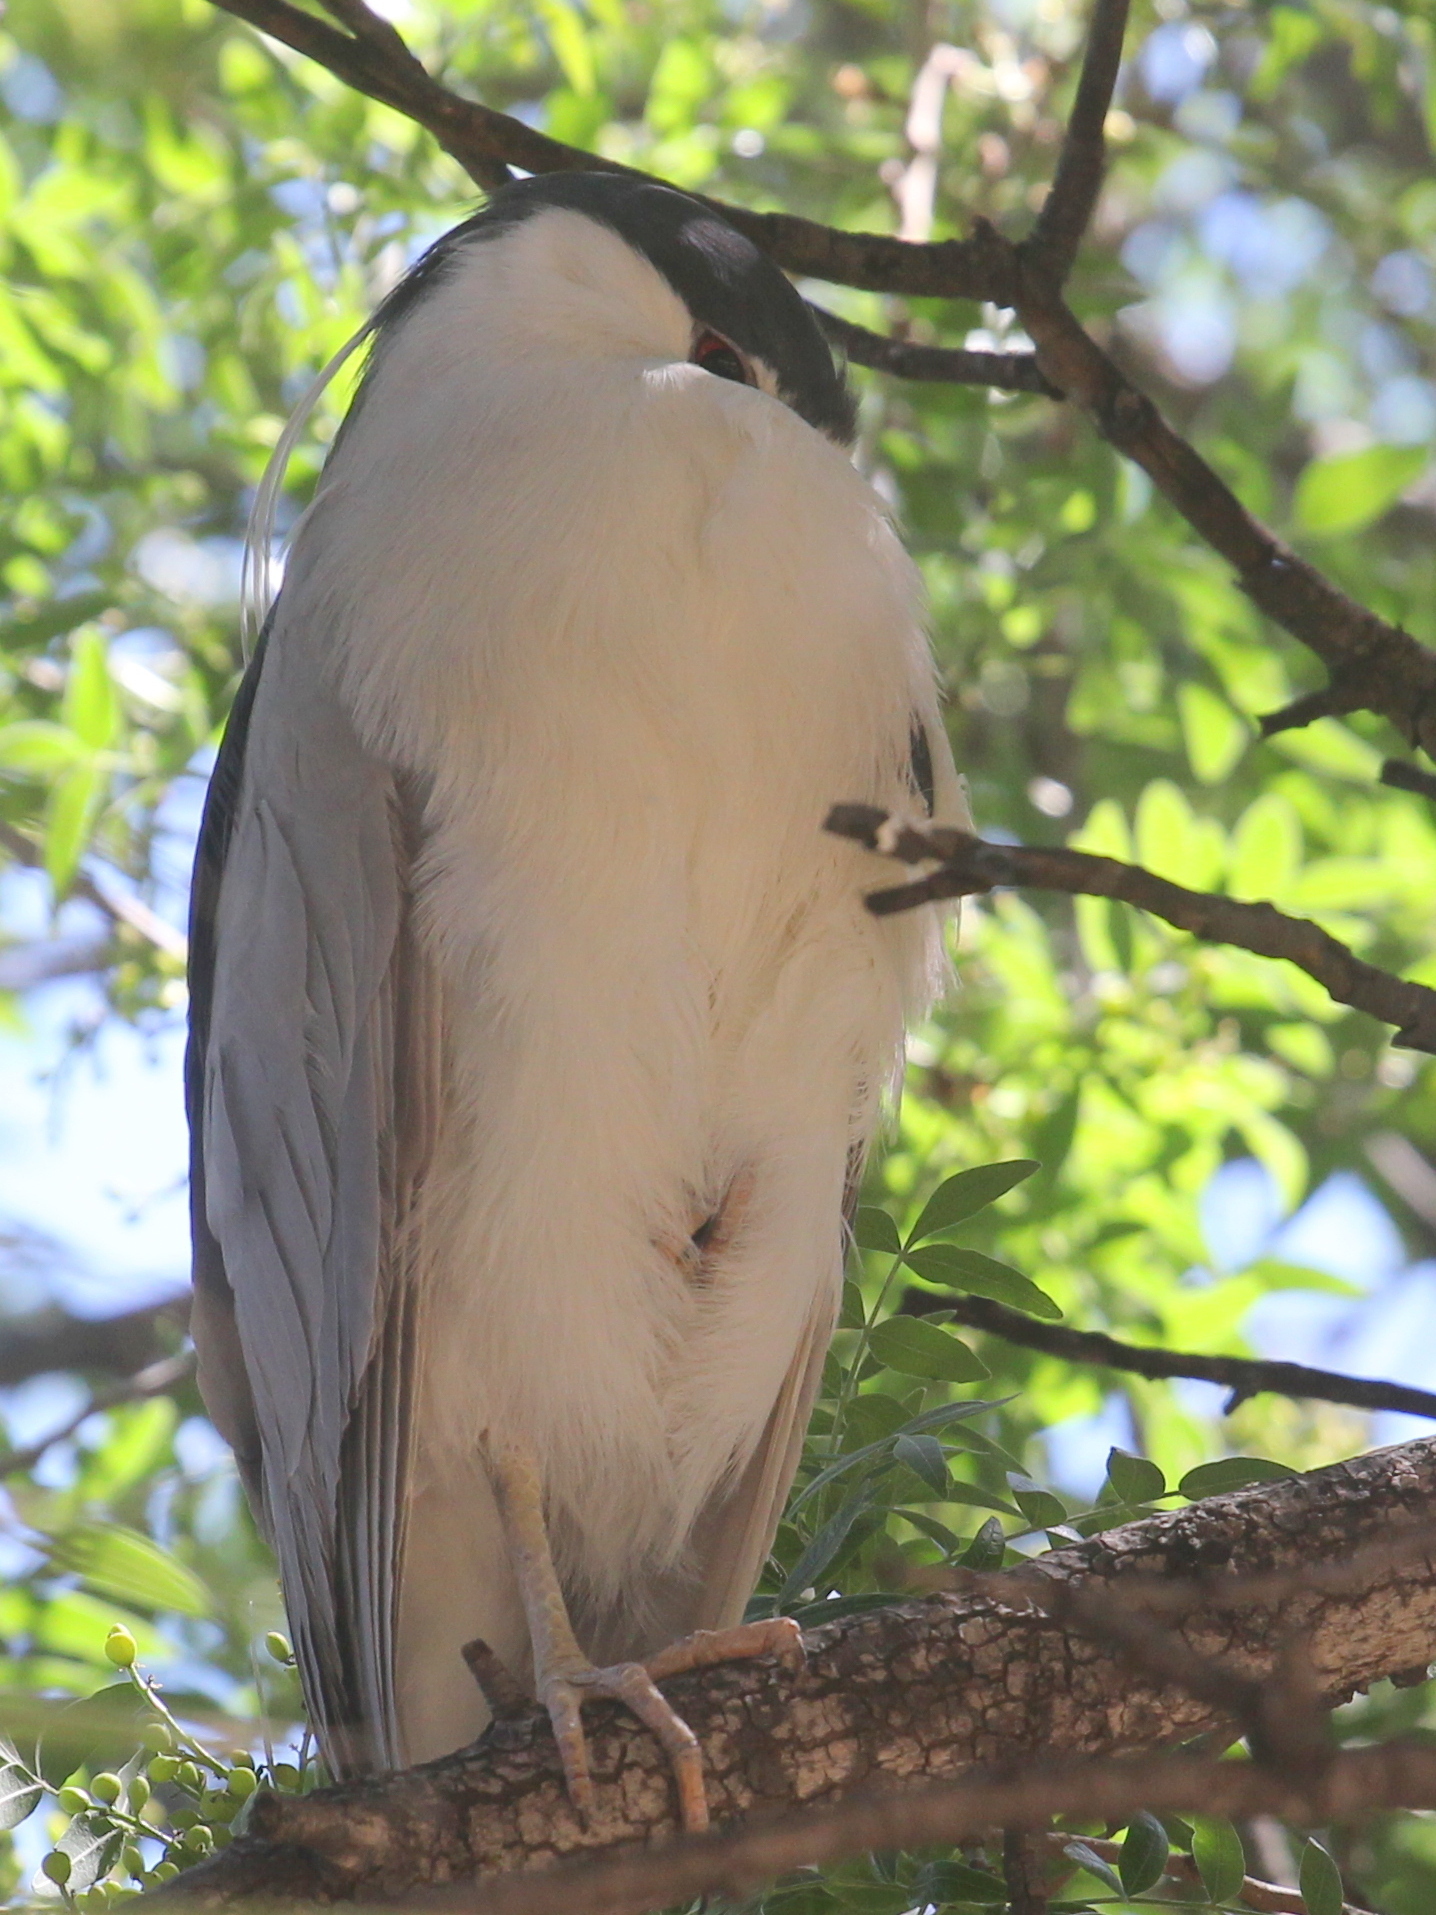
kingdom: Animalia
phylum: Chordata
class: Aves
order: Pelecaniformes
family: Ardeidae
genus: Nycticorax
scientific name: Nycticorax nycticorax
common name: Black-crowned night heron
